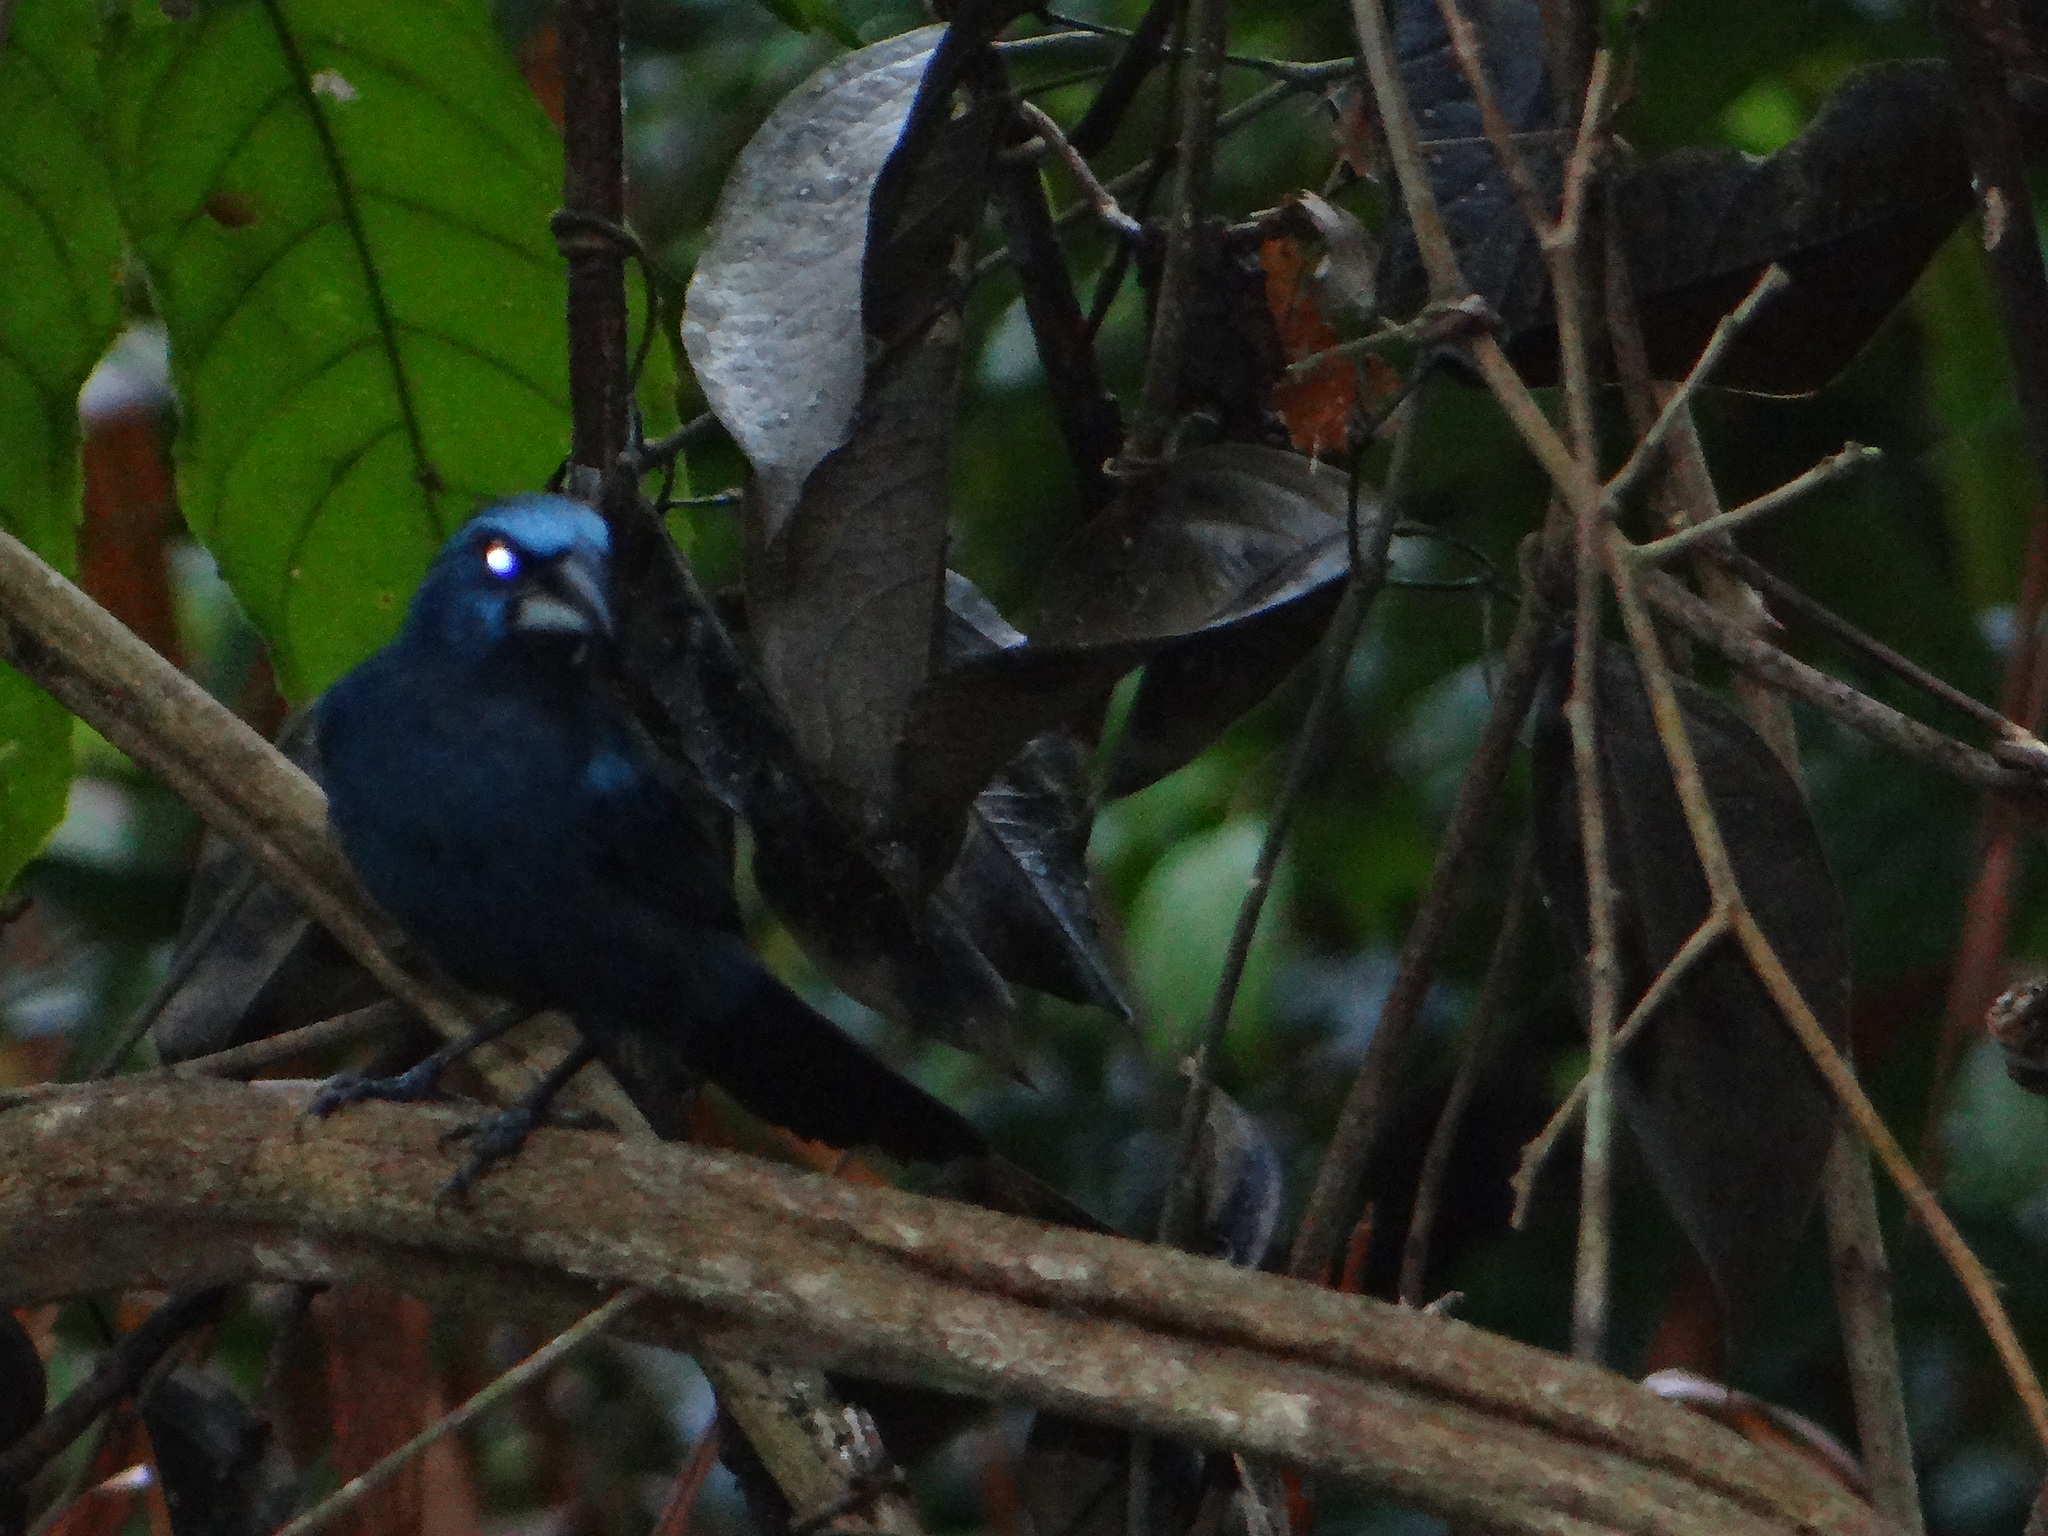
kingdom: Animalia
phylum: Chordata
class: Aves
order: Passeriformes
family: Cardinalidae
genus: Cyanoloxia
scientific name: Cyanoloxia rothschildii
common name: Amazonian grosbeak
